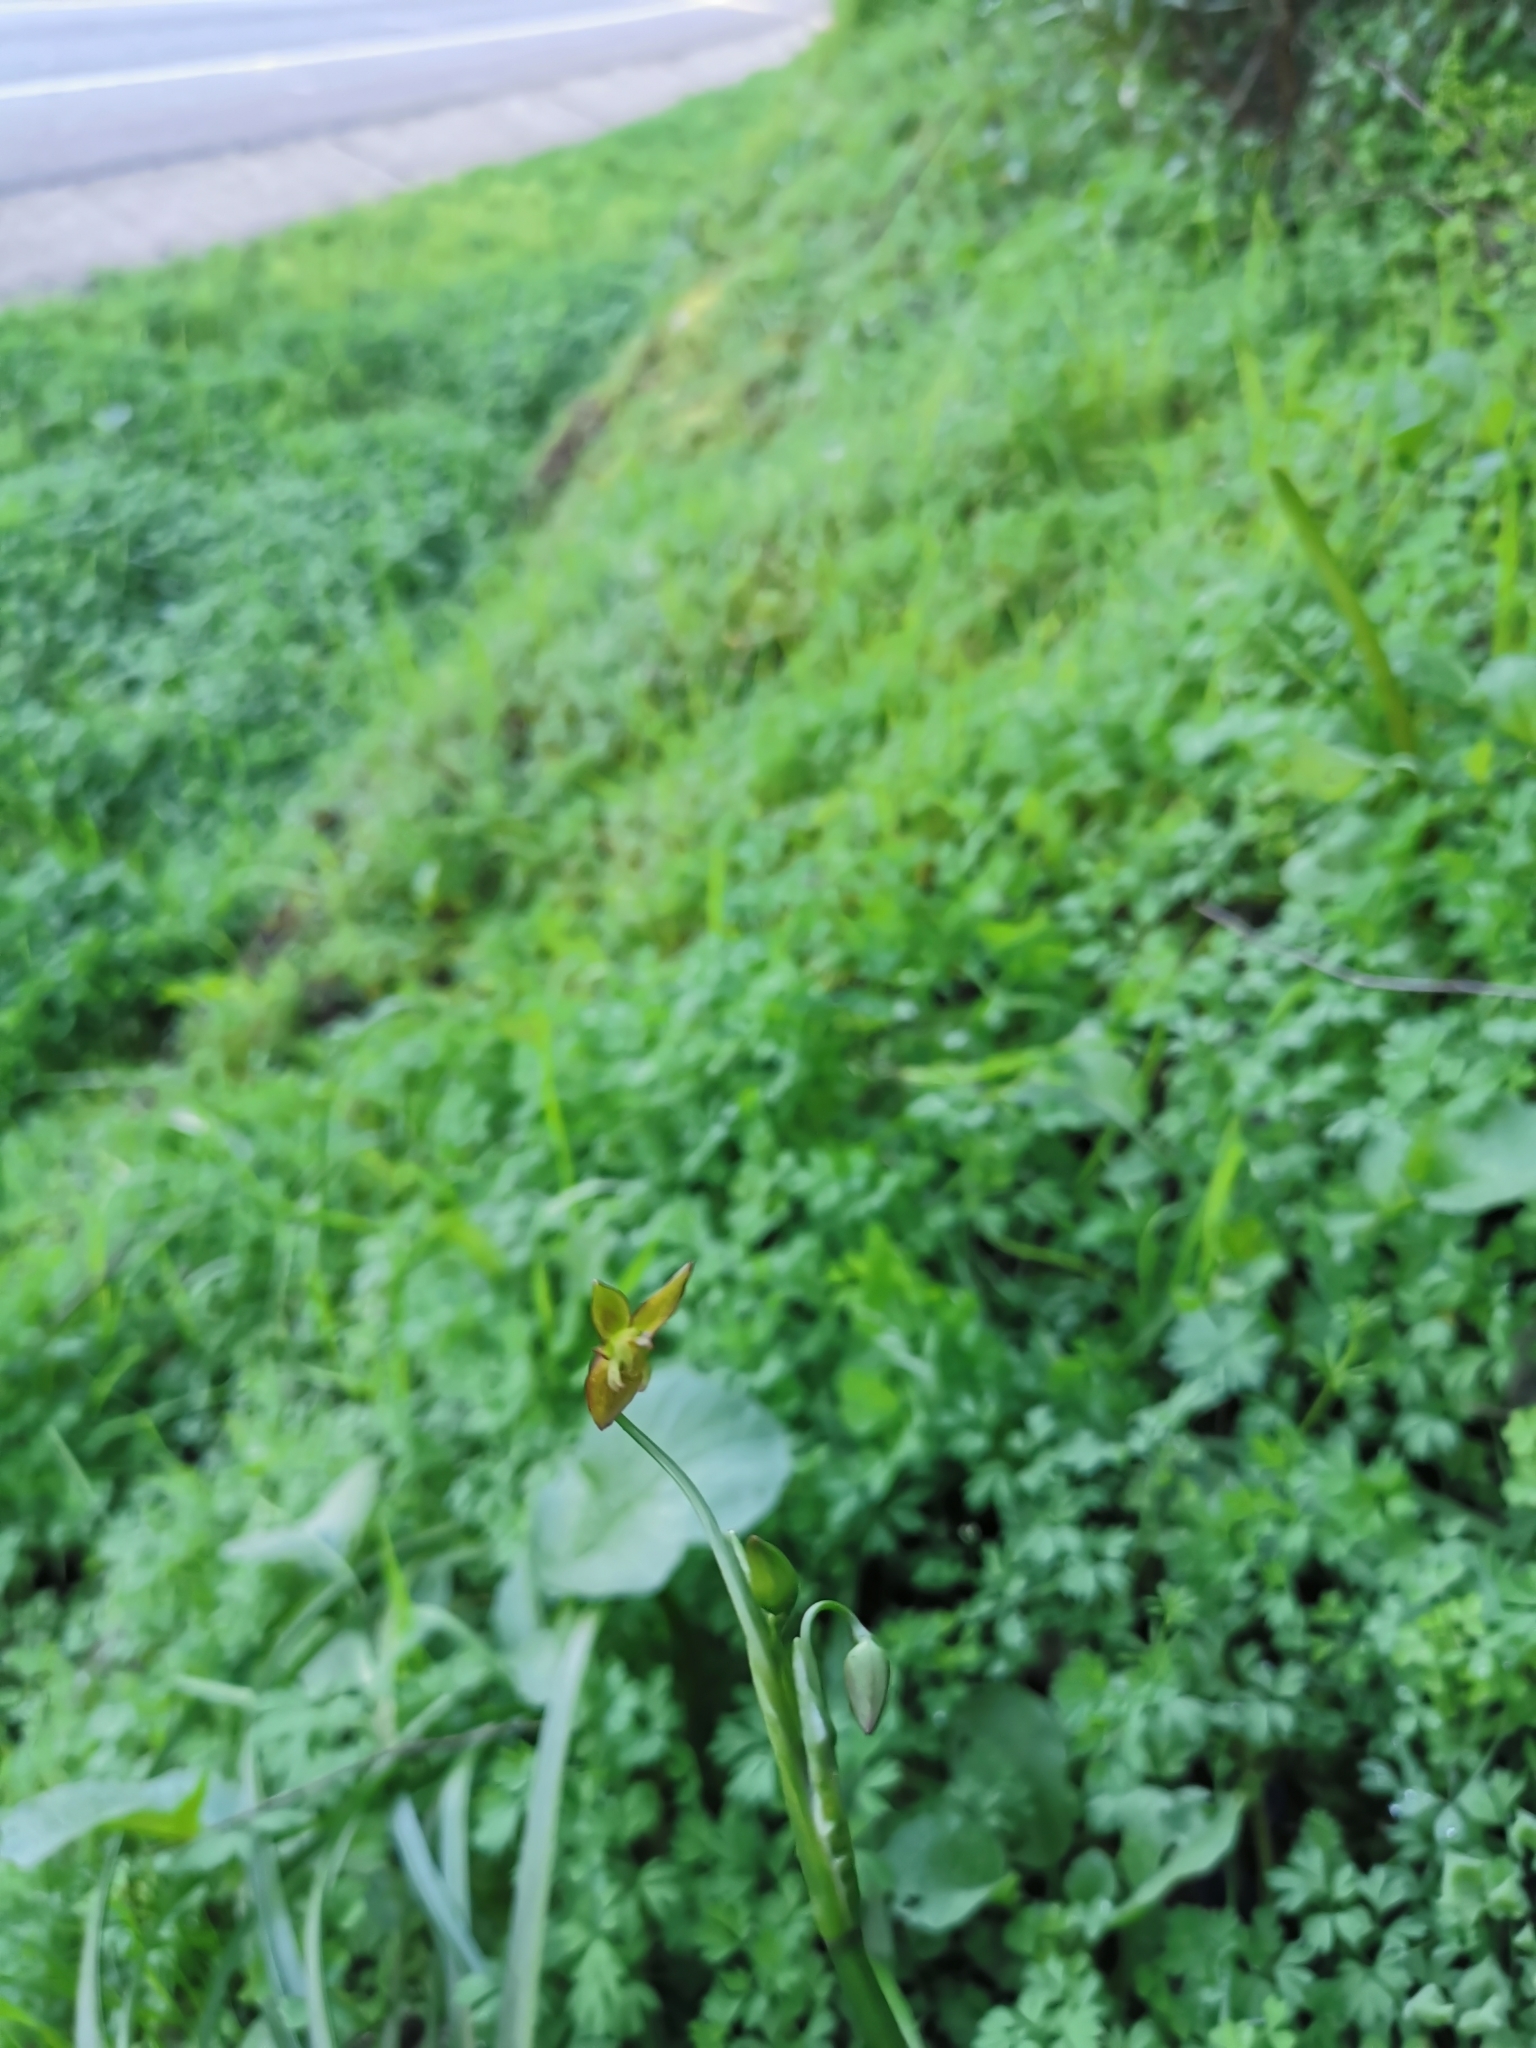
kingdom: Plantae
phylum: Tracheophyta
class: Liliopsida
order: Asparagales
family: Amaryllidaceae
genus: Gilliesia
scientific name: Gilliesia graminea
